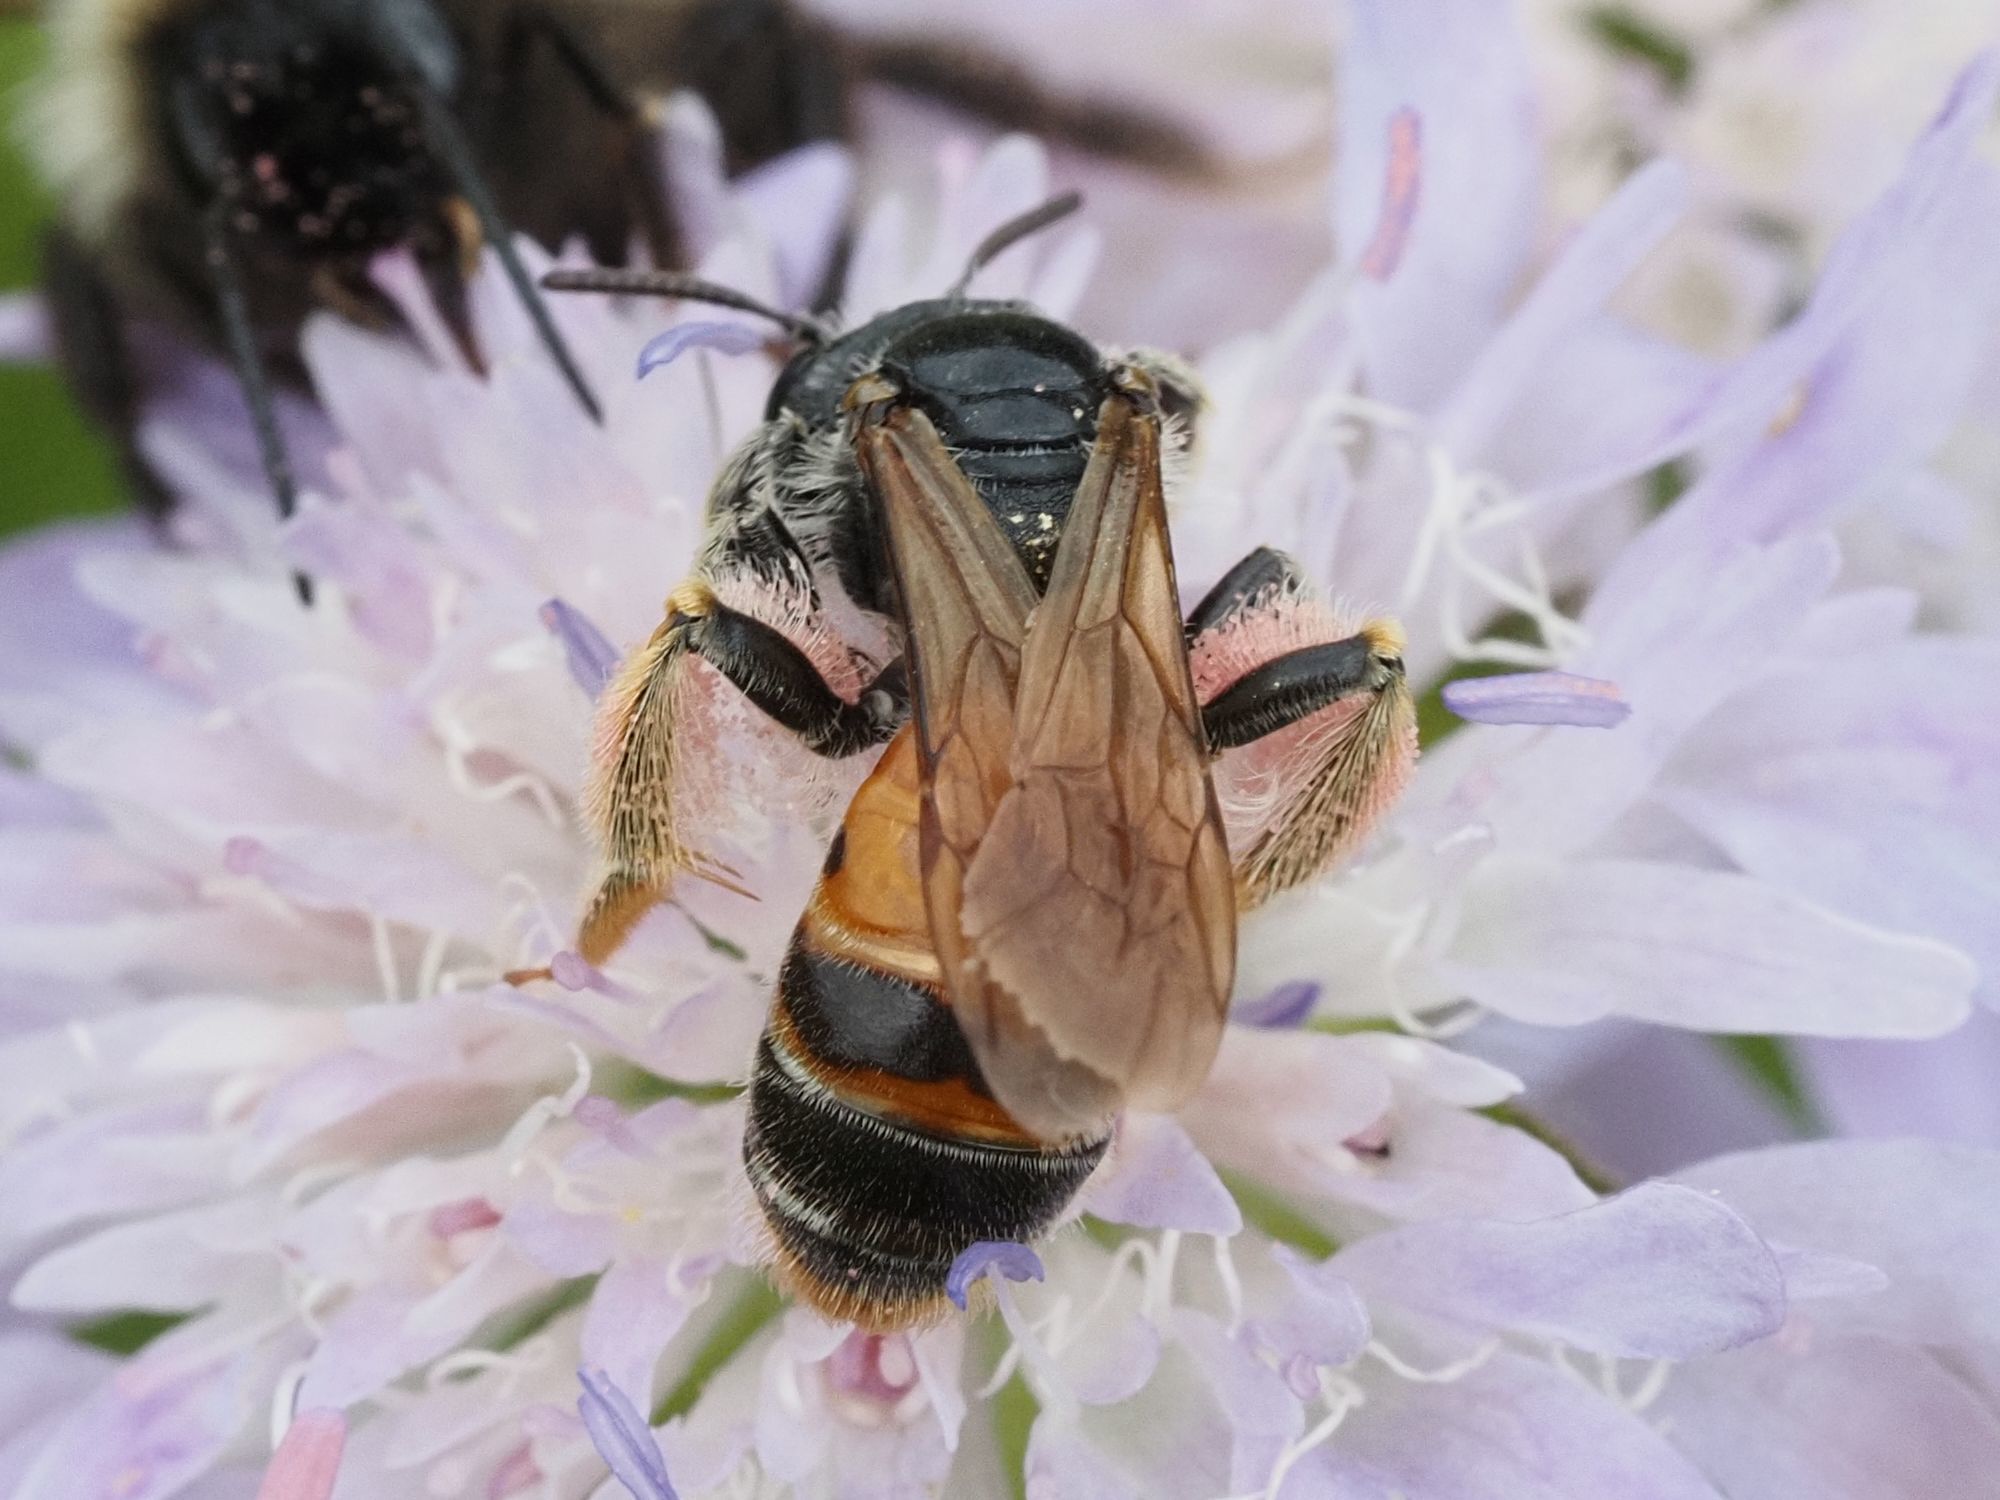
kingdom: Animalia
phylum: Arthropoda
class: Insecta
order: Hymenoptera
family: Andrenidae
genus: Andrena
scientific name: Andrena hattorfiana
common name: Large scabious mining bee
